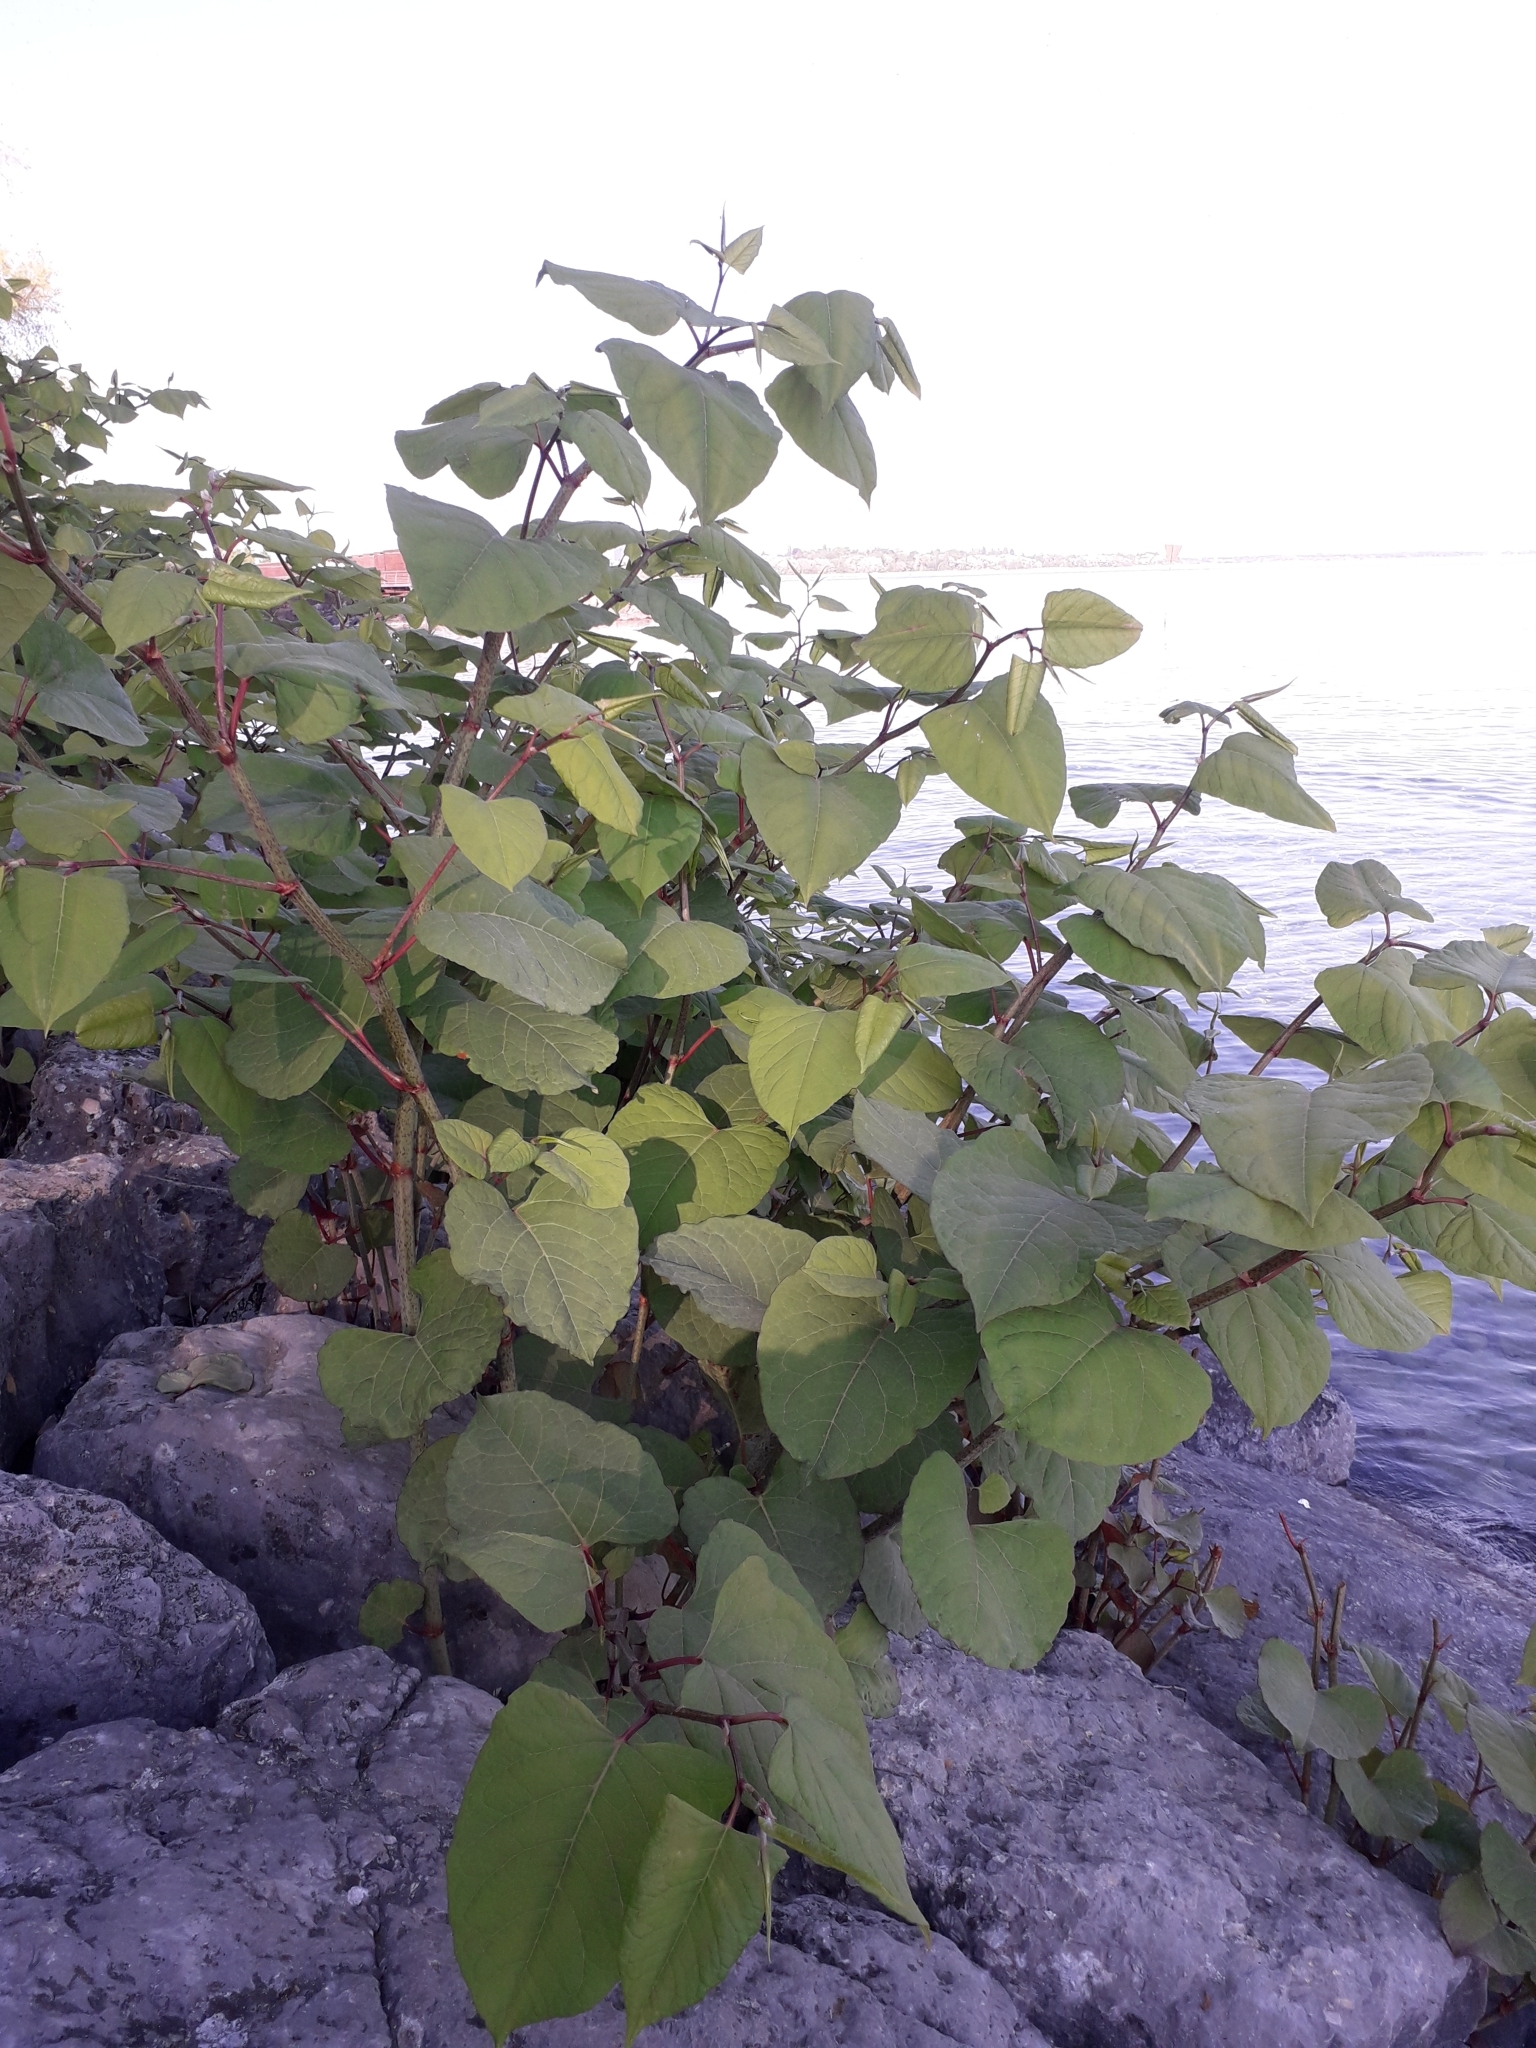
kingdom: Plantae
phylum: Tracheophyta
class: Magnoliopsida
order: Caryophyllales
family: Polygonaceae
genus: Reynoutria
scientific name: Reynoutria bohemica
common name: Bohemian knotweed
